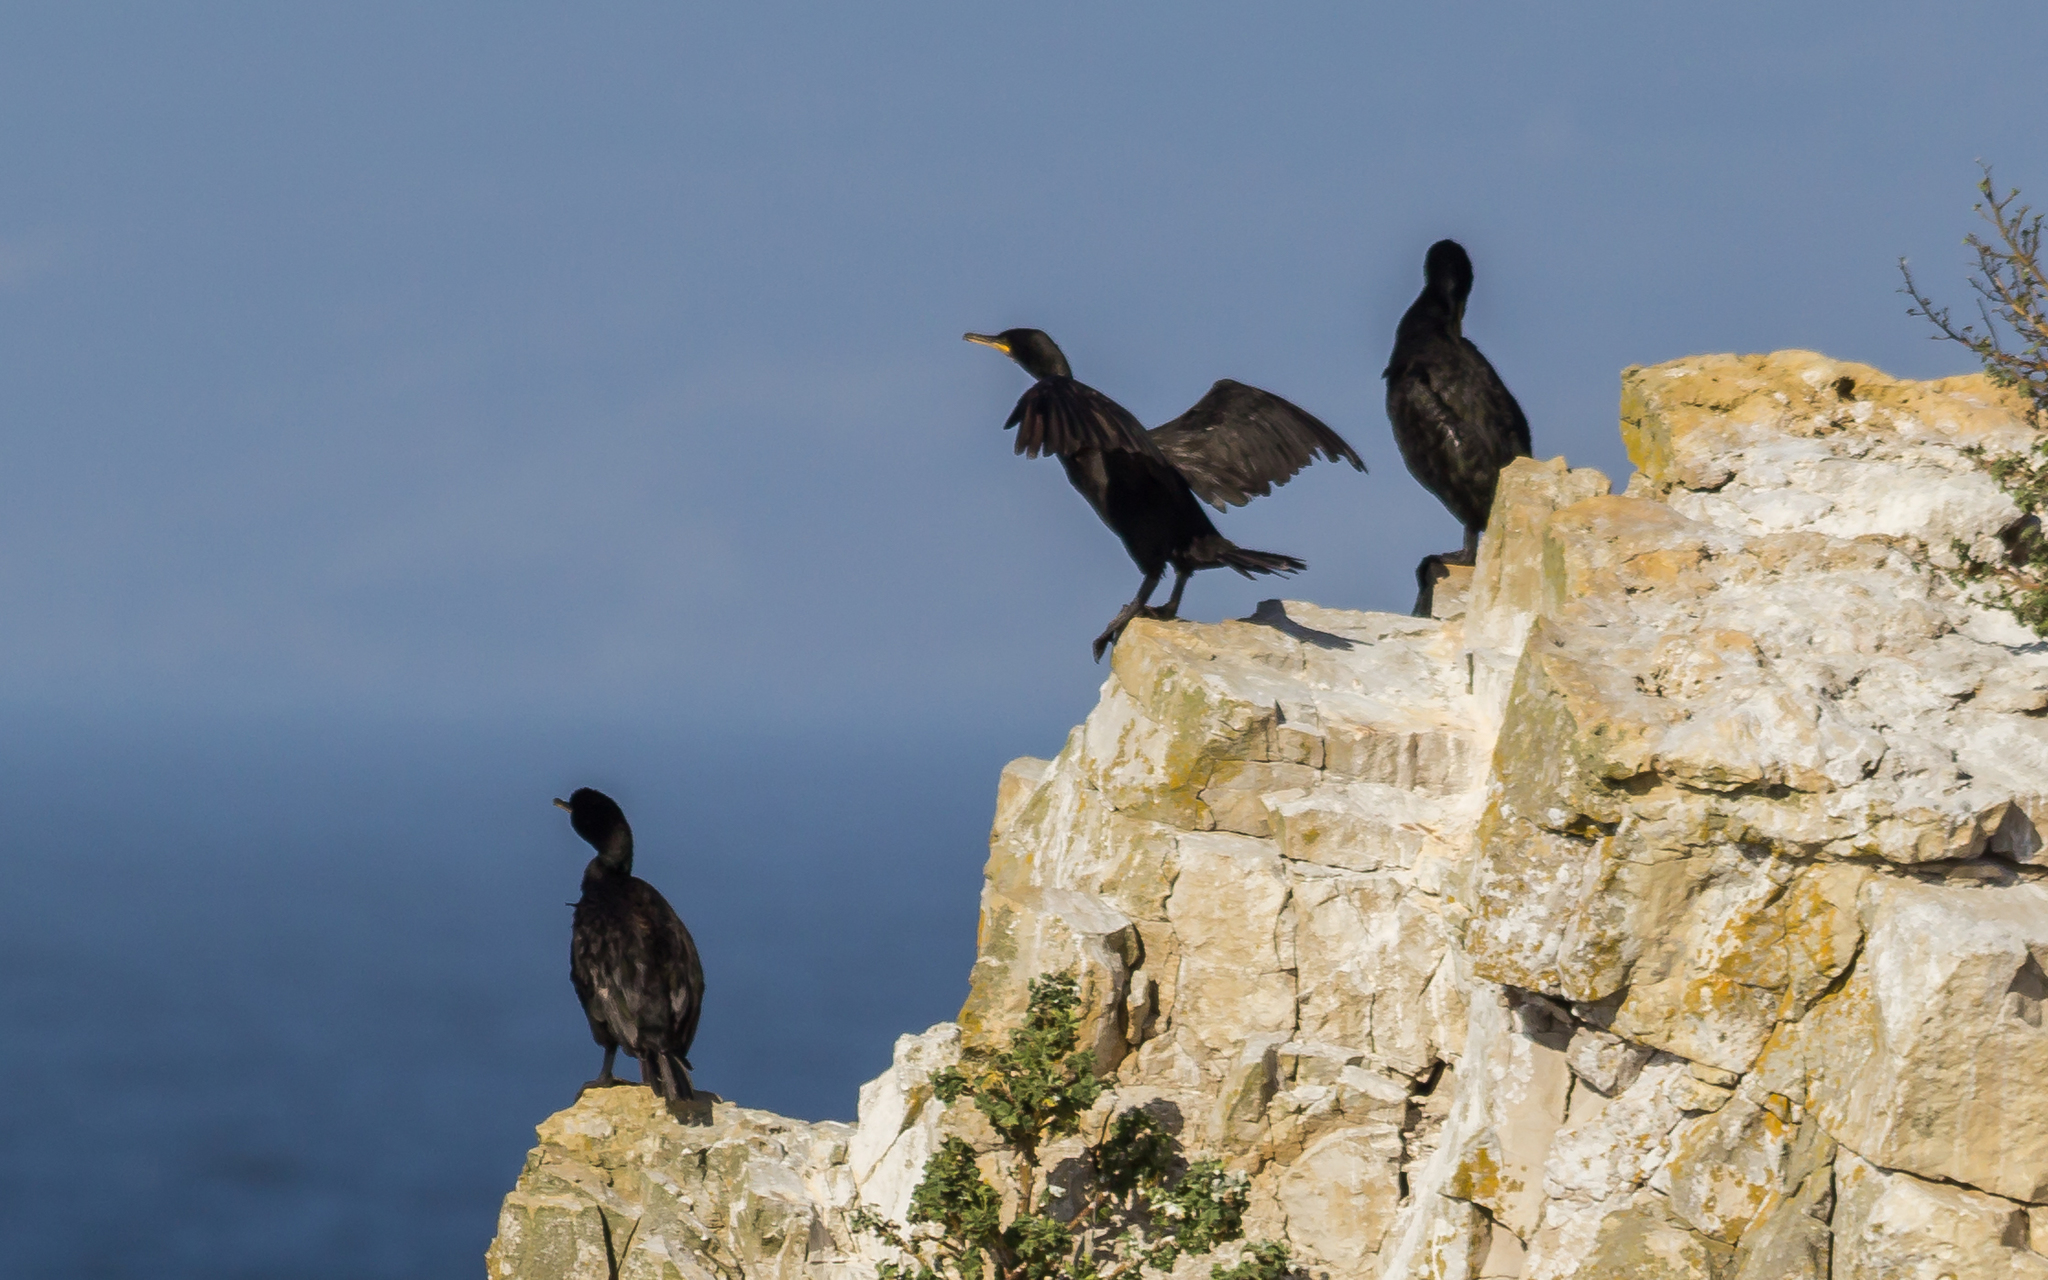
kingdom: Animalia
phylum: Chordata
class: Aves
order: Suliformes
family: Phalacrocoracidae
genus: Phalacrocorax
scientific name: Phalacrocorax aristotelis
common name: European shag
